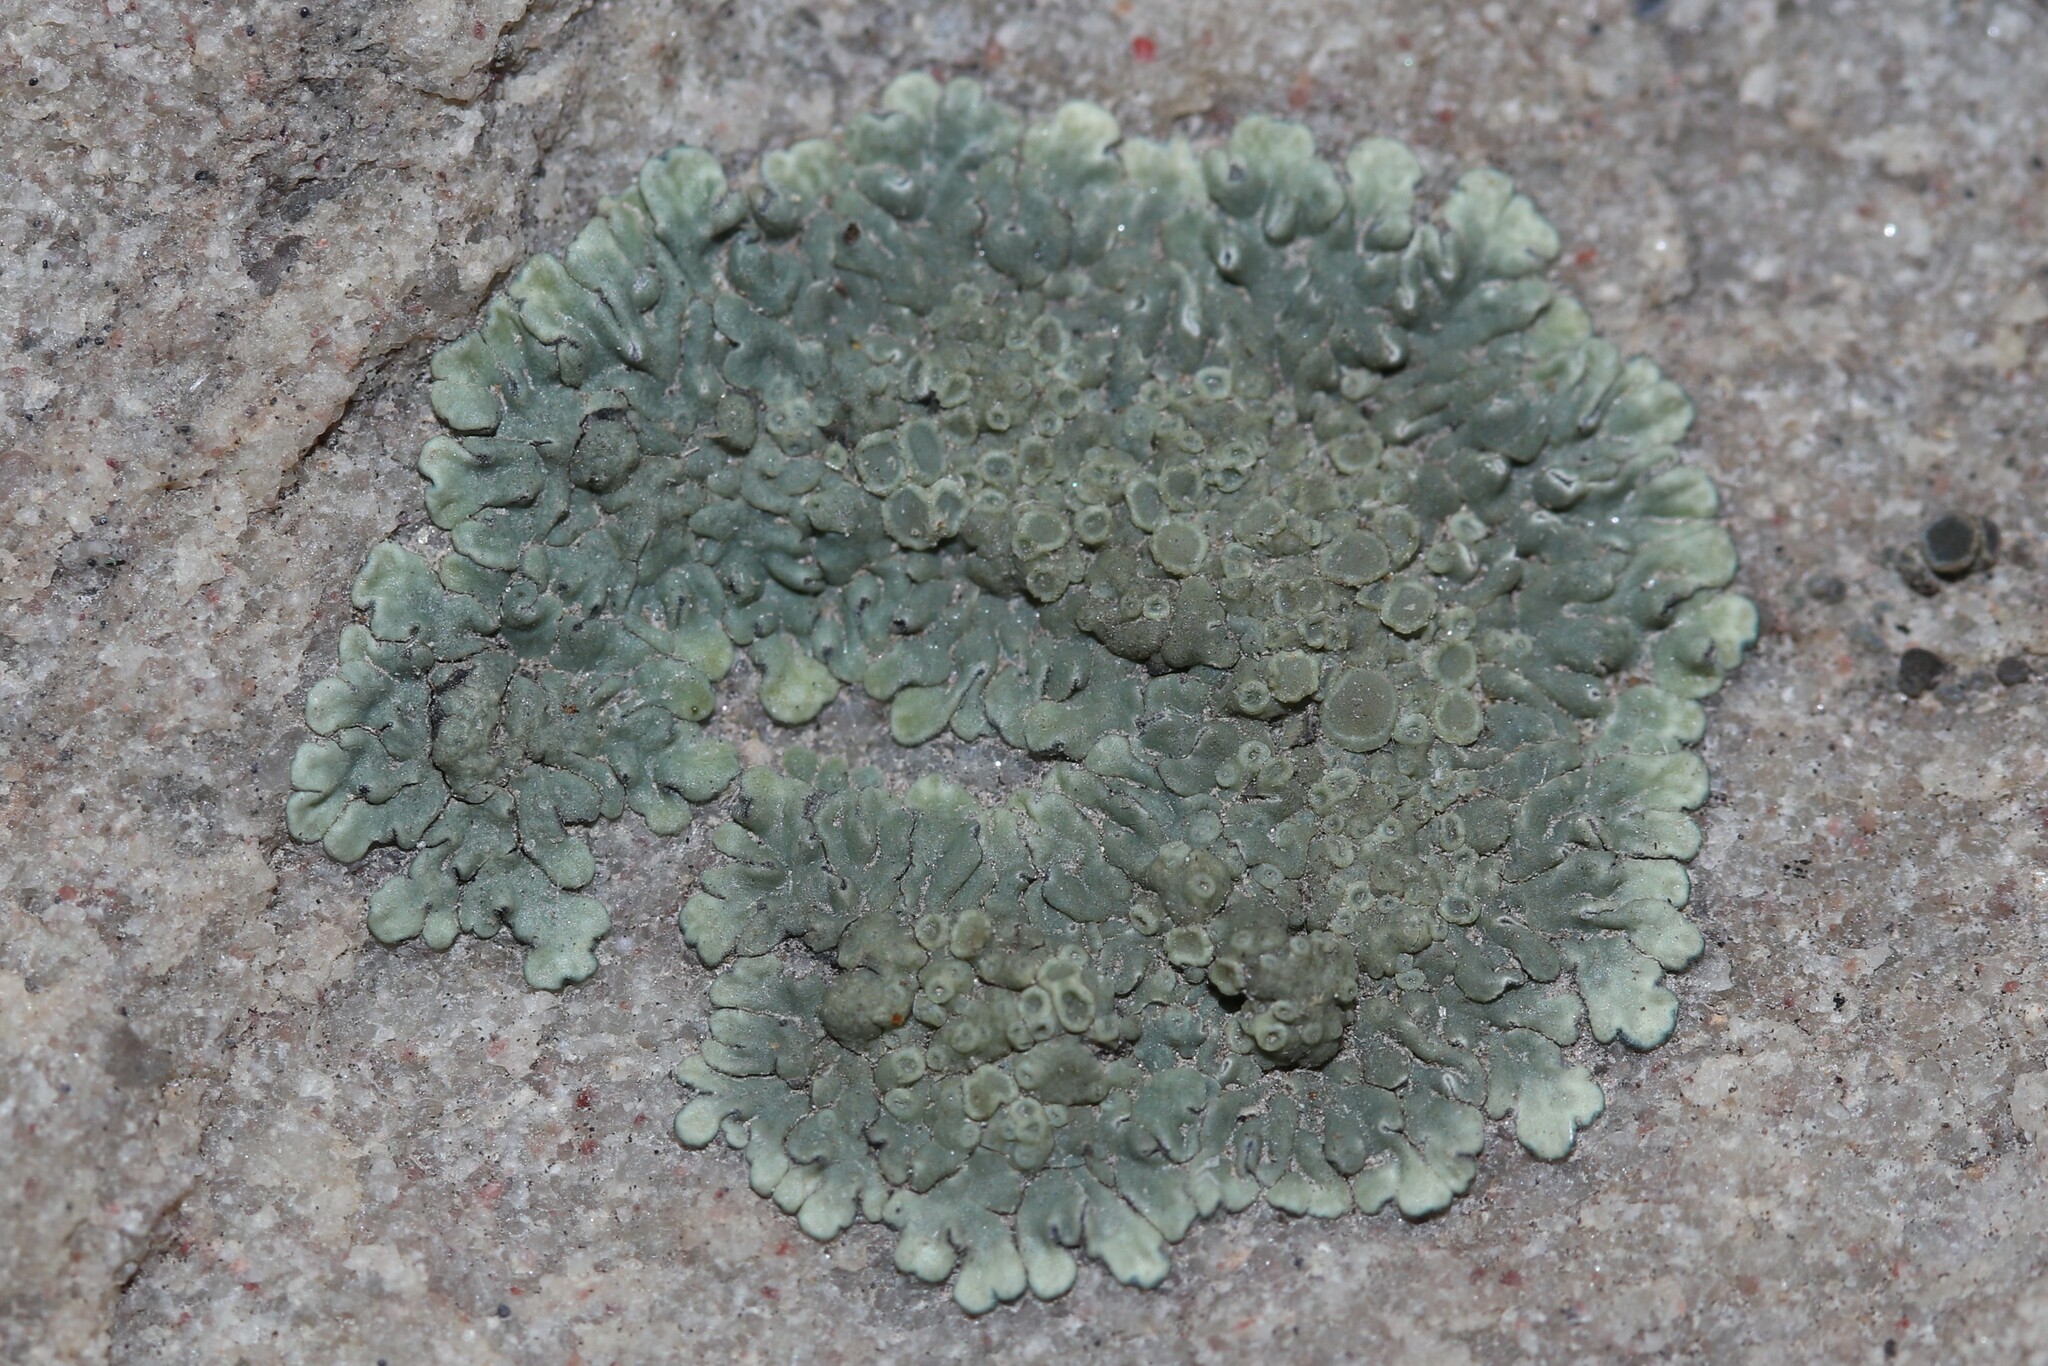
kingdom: Fungi
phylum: Ascomycota
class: Lecanoromycetes
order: Lecanorales
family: Lecanoraceae
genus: Protoparmeliopsis
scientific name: Protoparmeliopsis muralis
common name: Stonewall rim lichen
